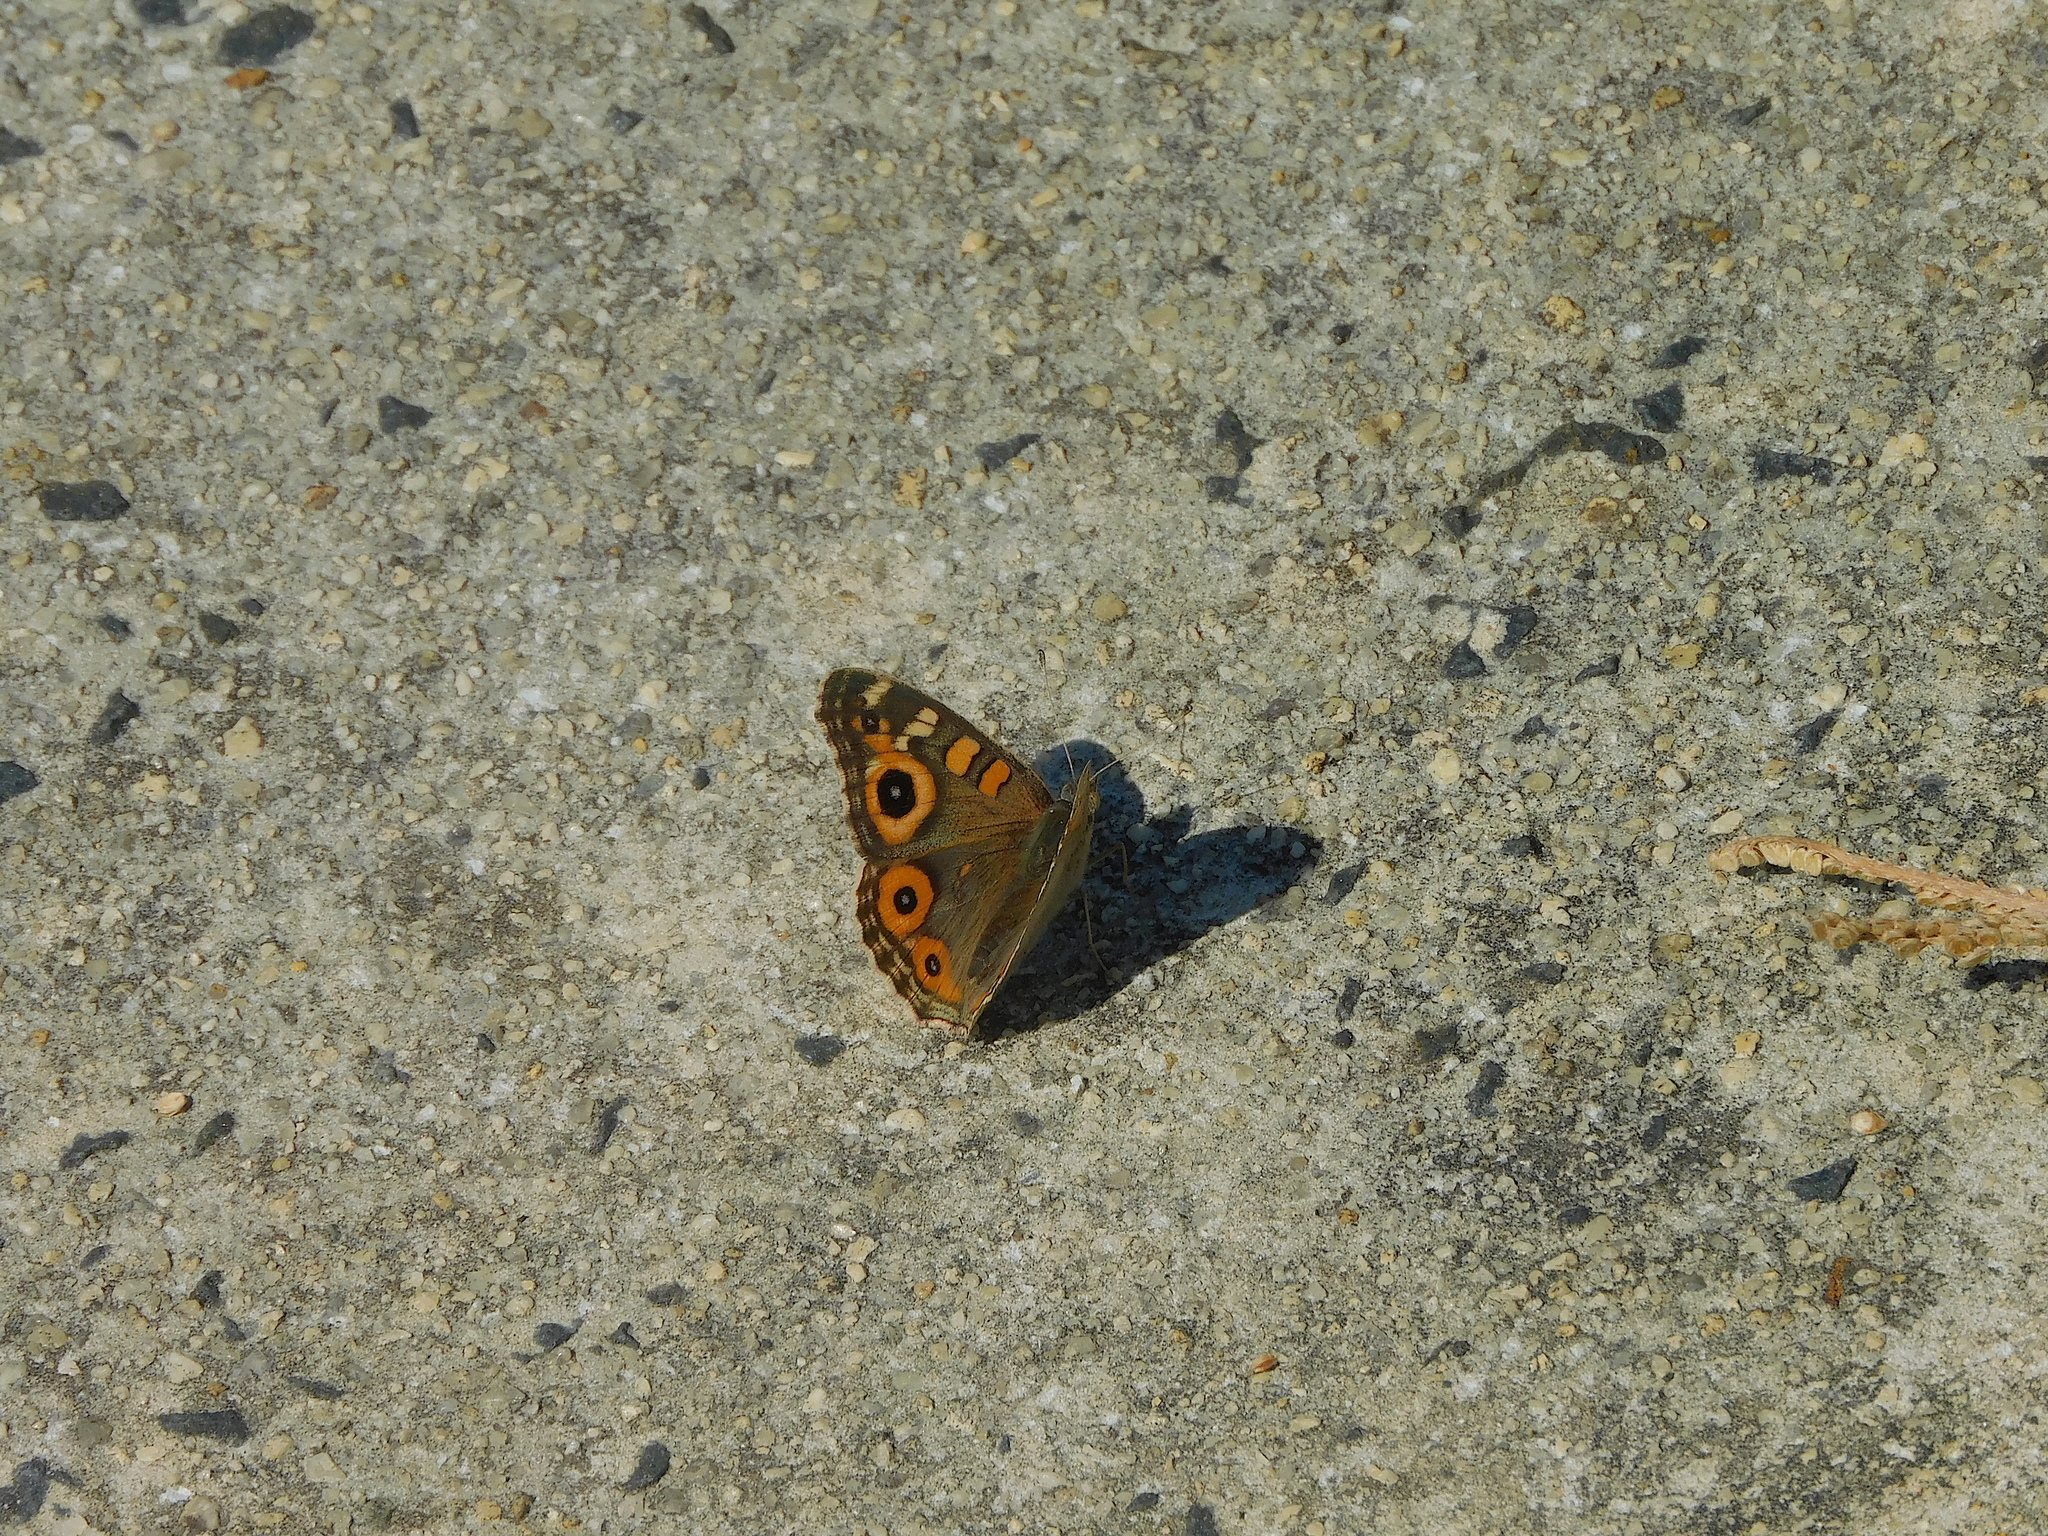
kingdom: Animalia
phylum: Arthropoda
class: Insecta
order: Lepidoptera
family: Nymphalidae
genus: Junonia
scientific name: Junonia villida
